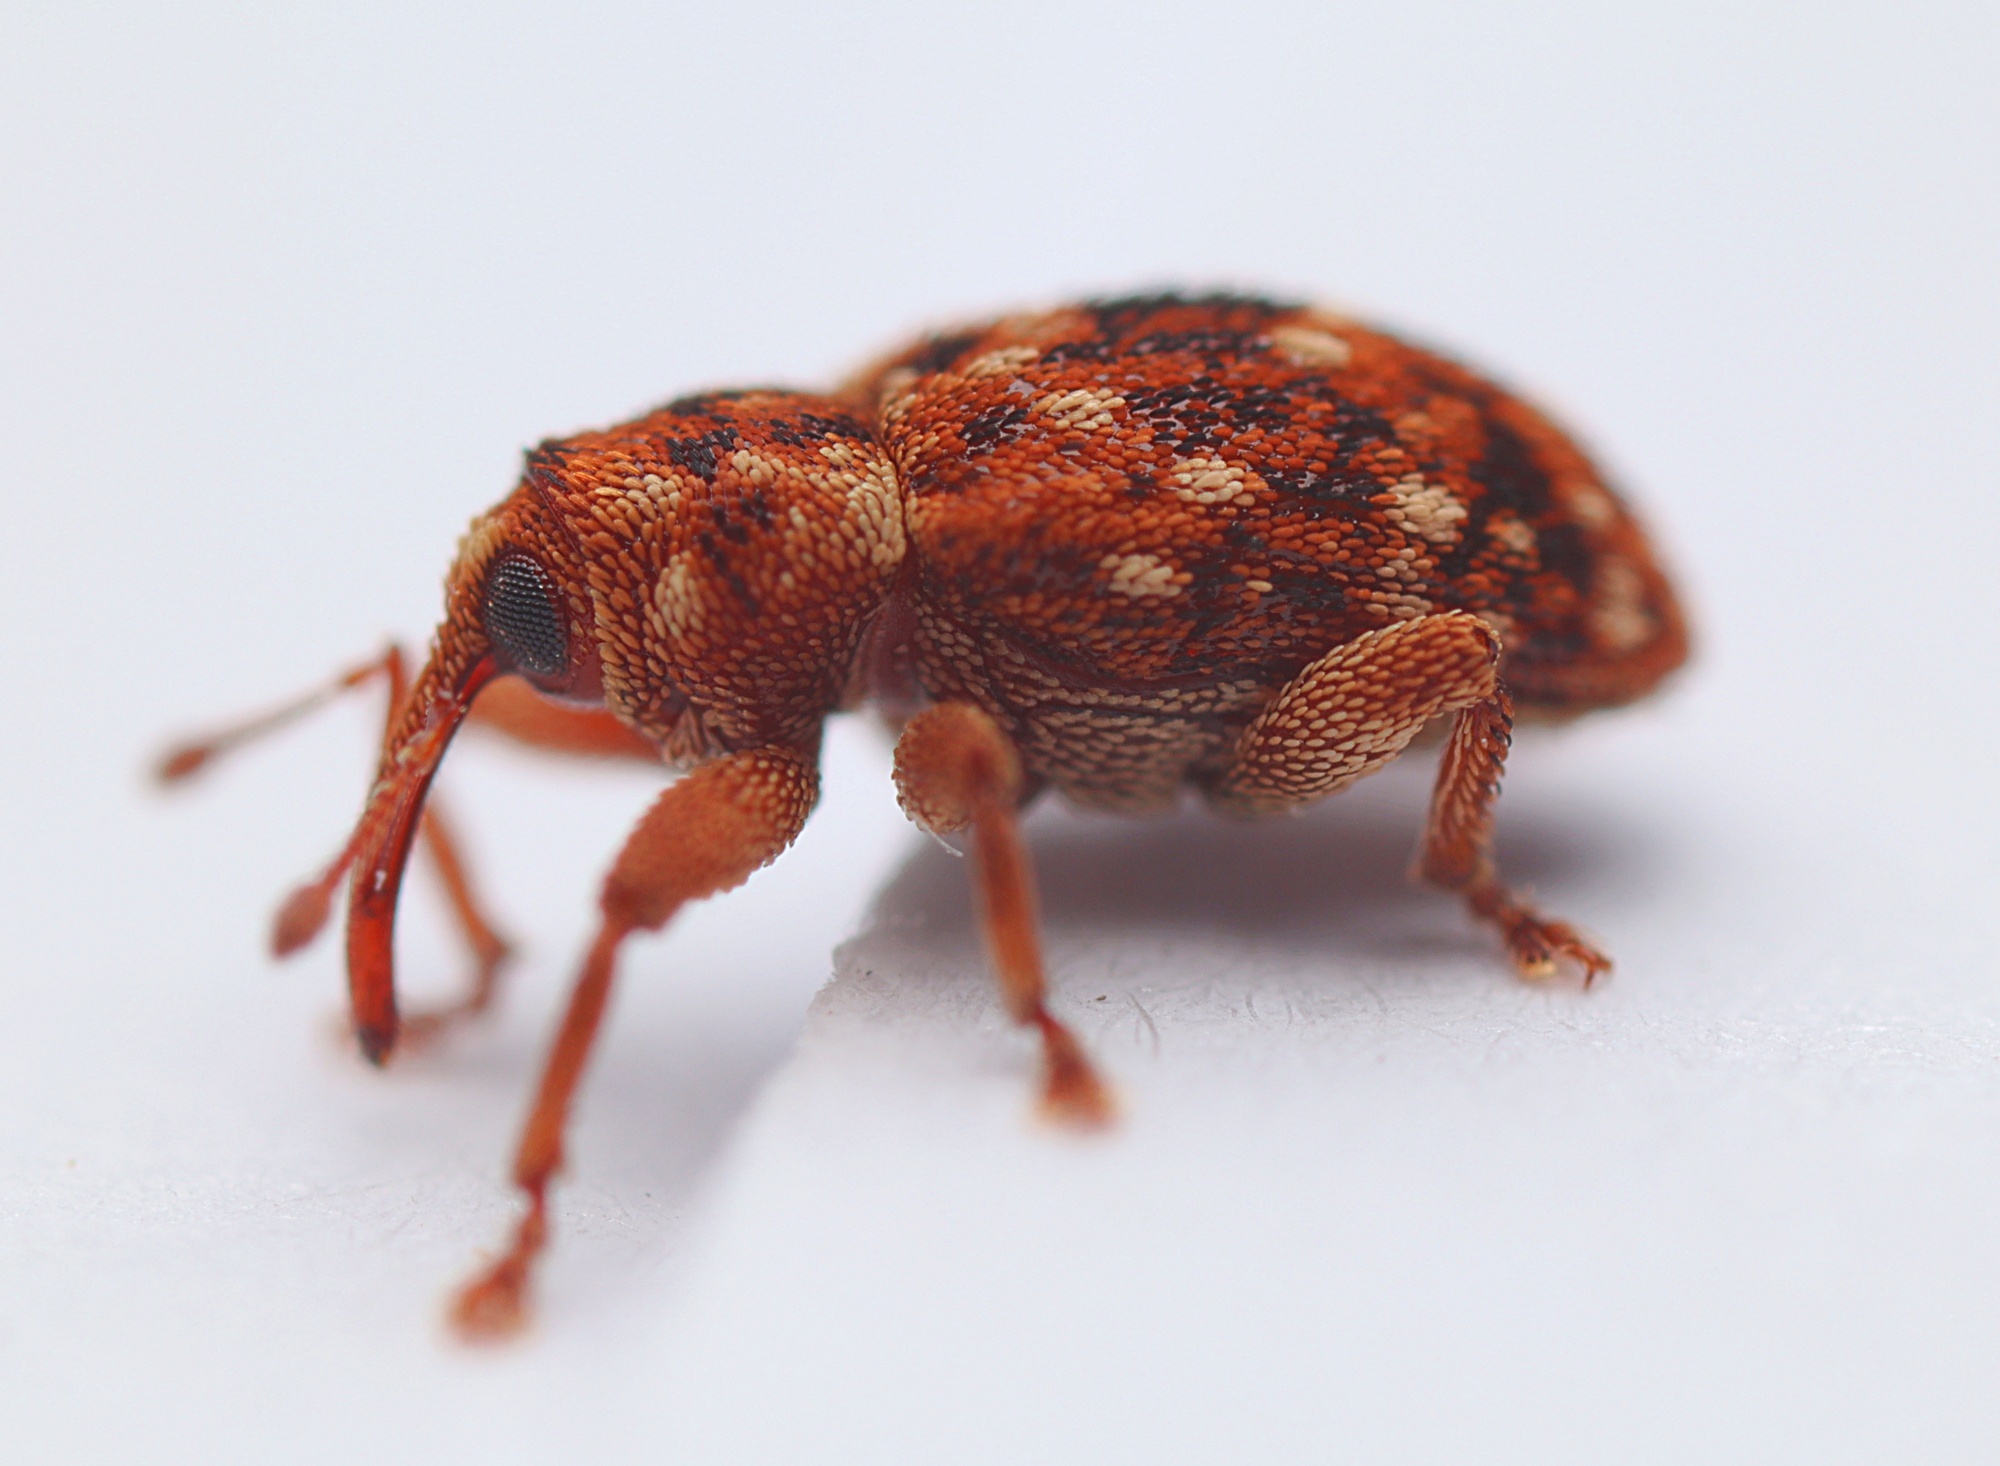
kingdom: Animalia
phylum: Arthropoda
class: Insecta
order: Coleoptera
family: Curculionidae
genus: Storeus
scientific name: Storeus albosignatus
